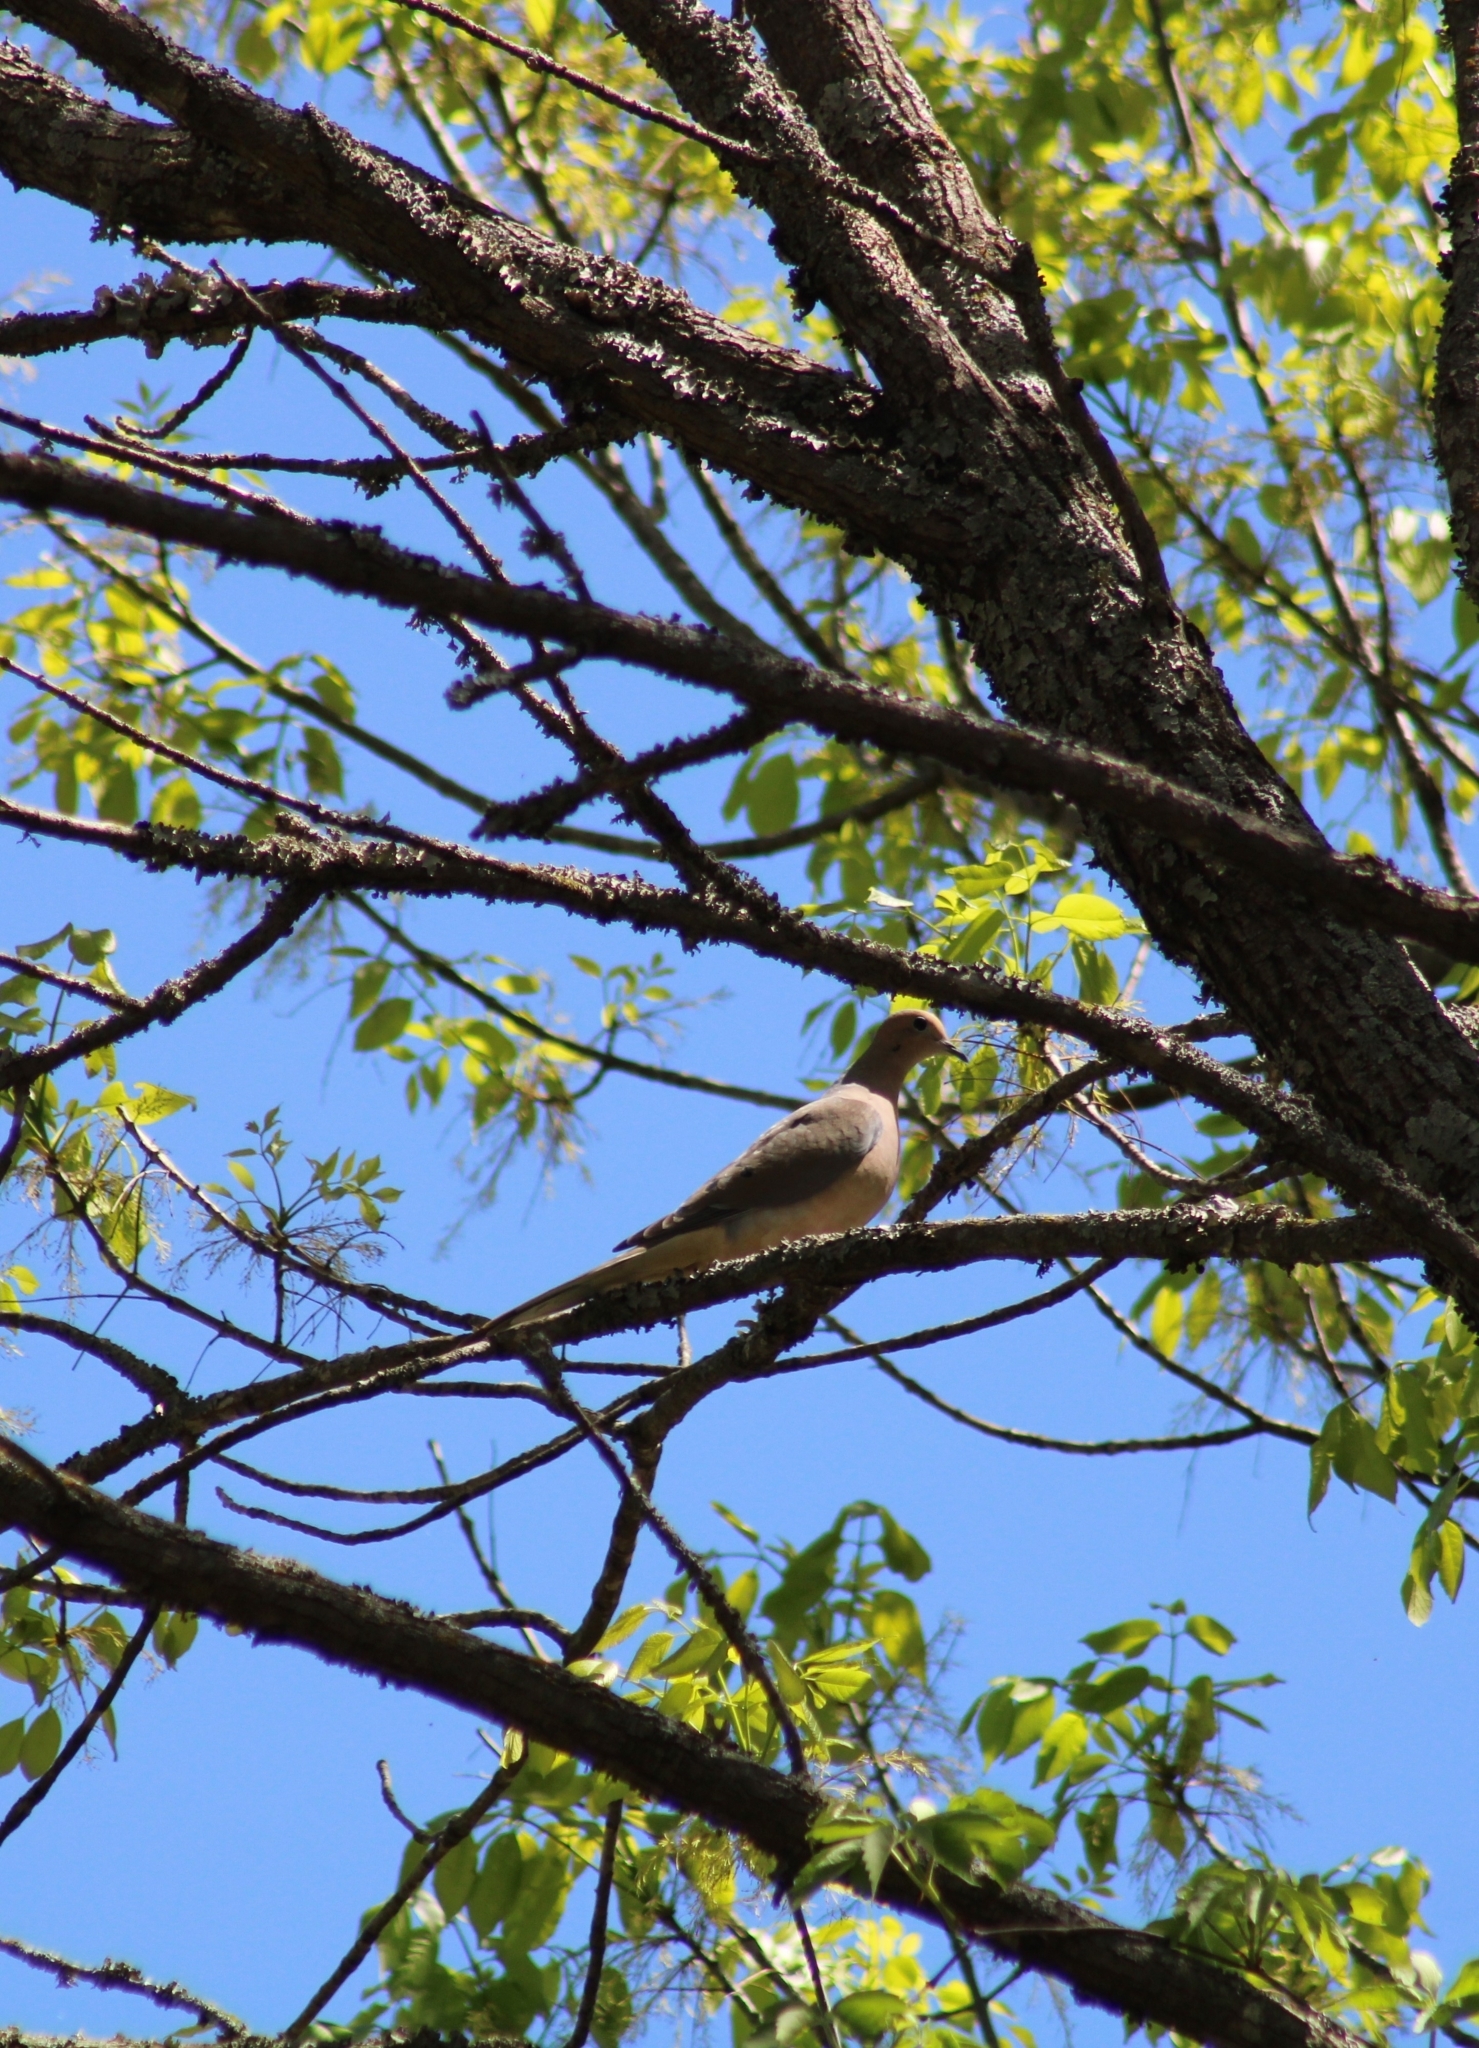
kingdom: Animalia
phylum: Chordata
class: Aves
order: Columbiformes
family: Columbidae
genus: Zenaida
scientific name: Zenaida macroura
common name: Mourning dove
